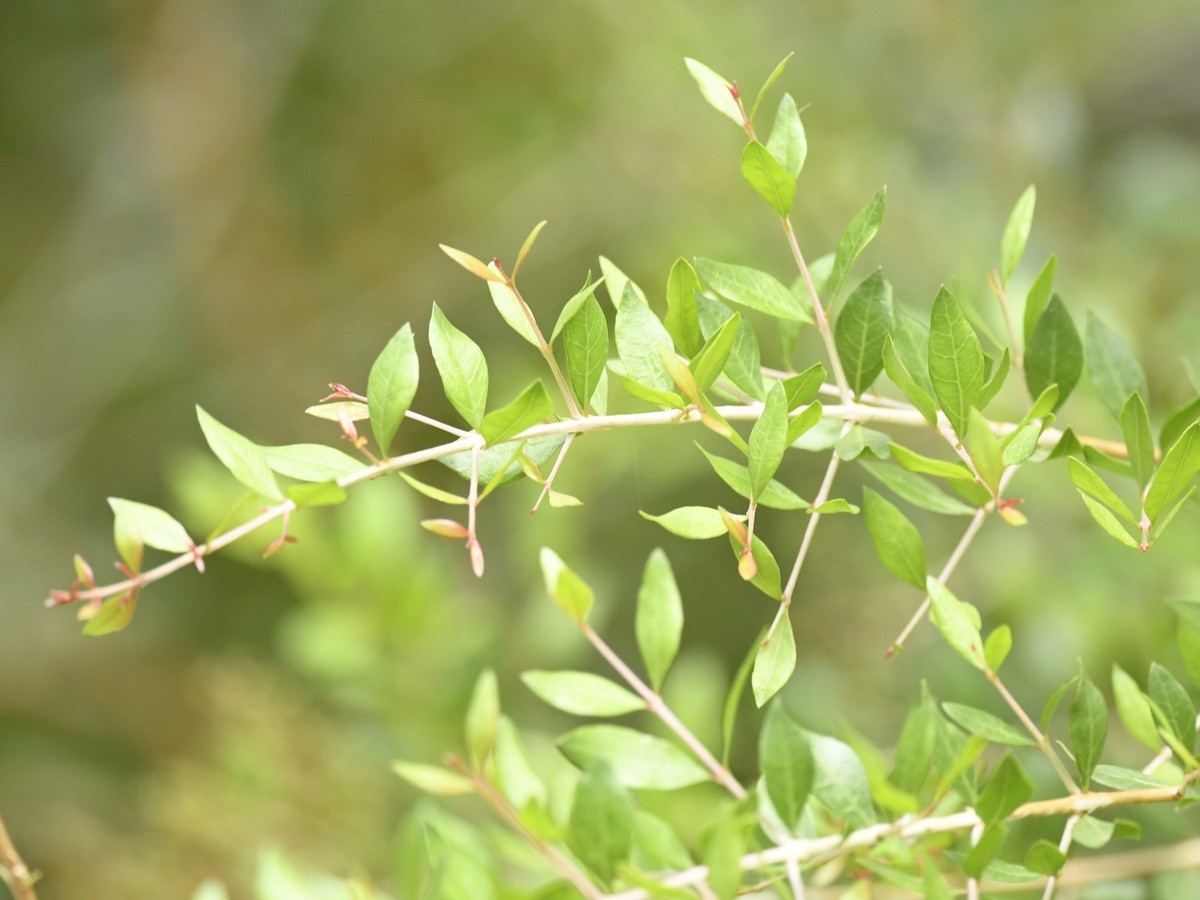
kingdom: Plantae
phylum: Tracheophyta
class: Magnoliopsida
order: Myrtales
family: Lythraceae
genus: Lawsonia
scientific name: Lawsonia inermis
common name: Henna
